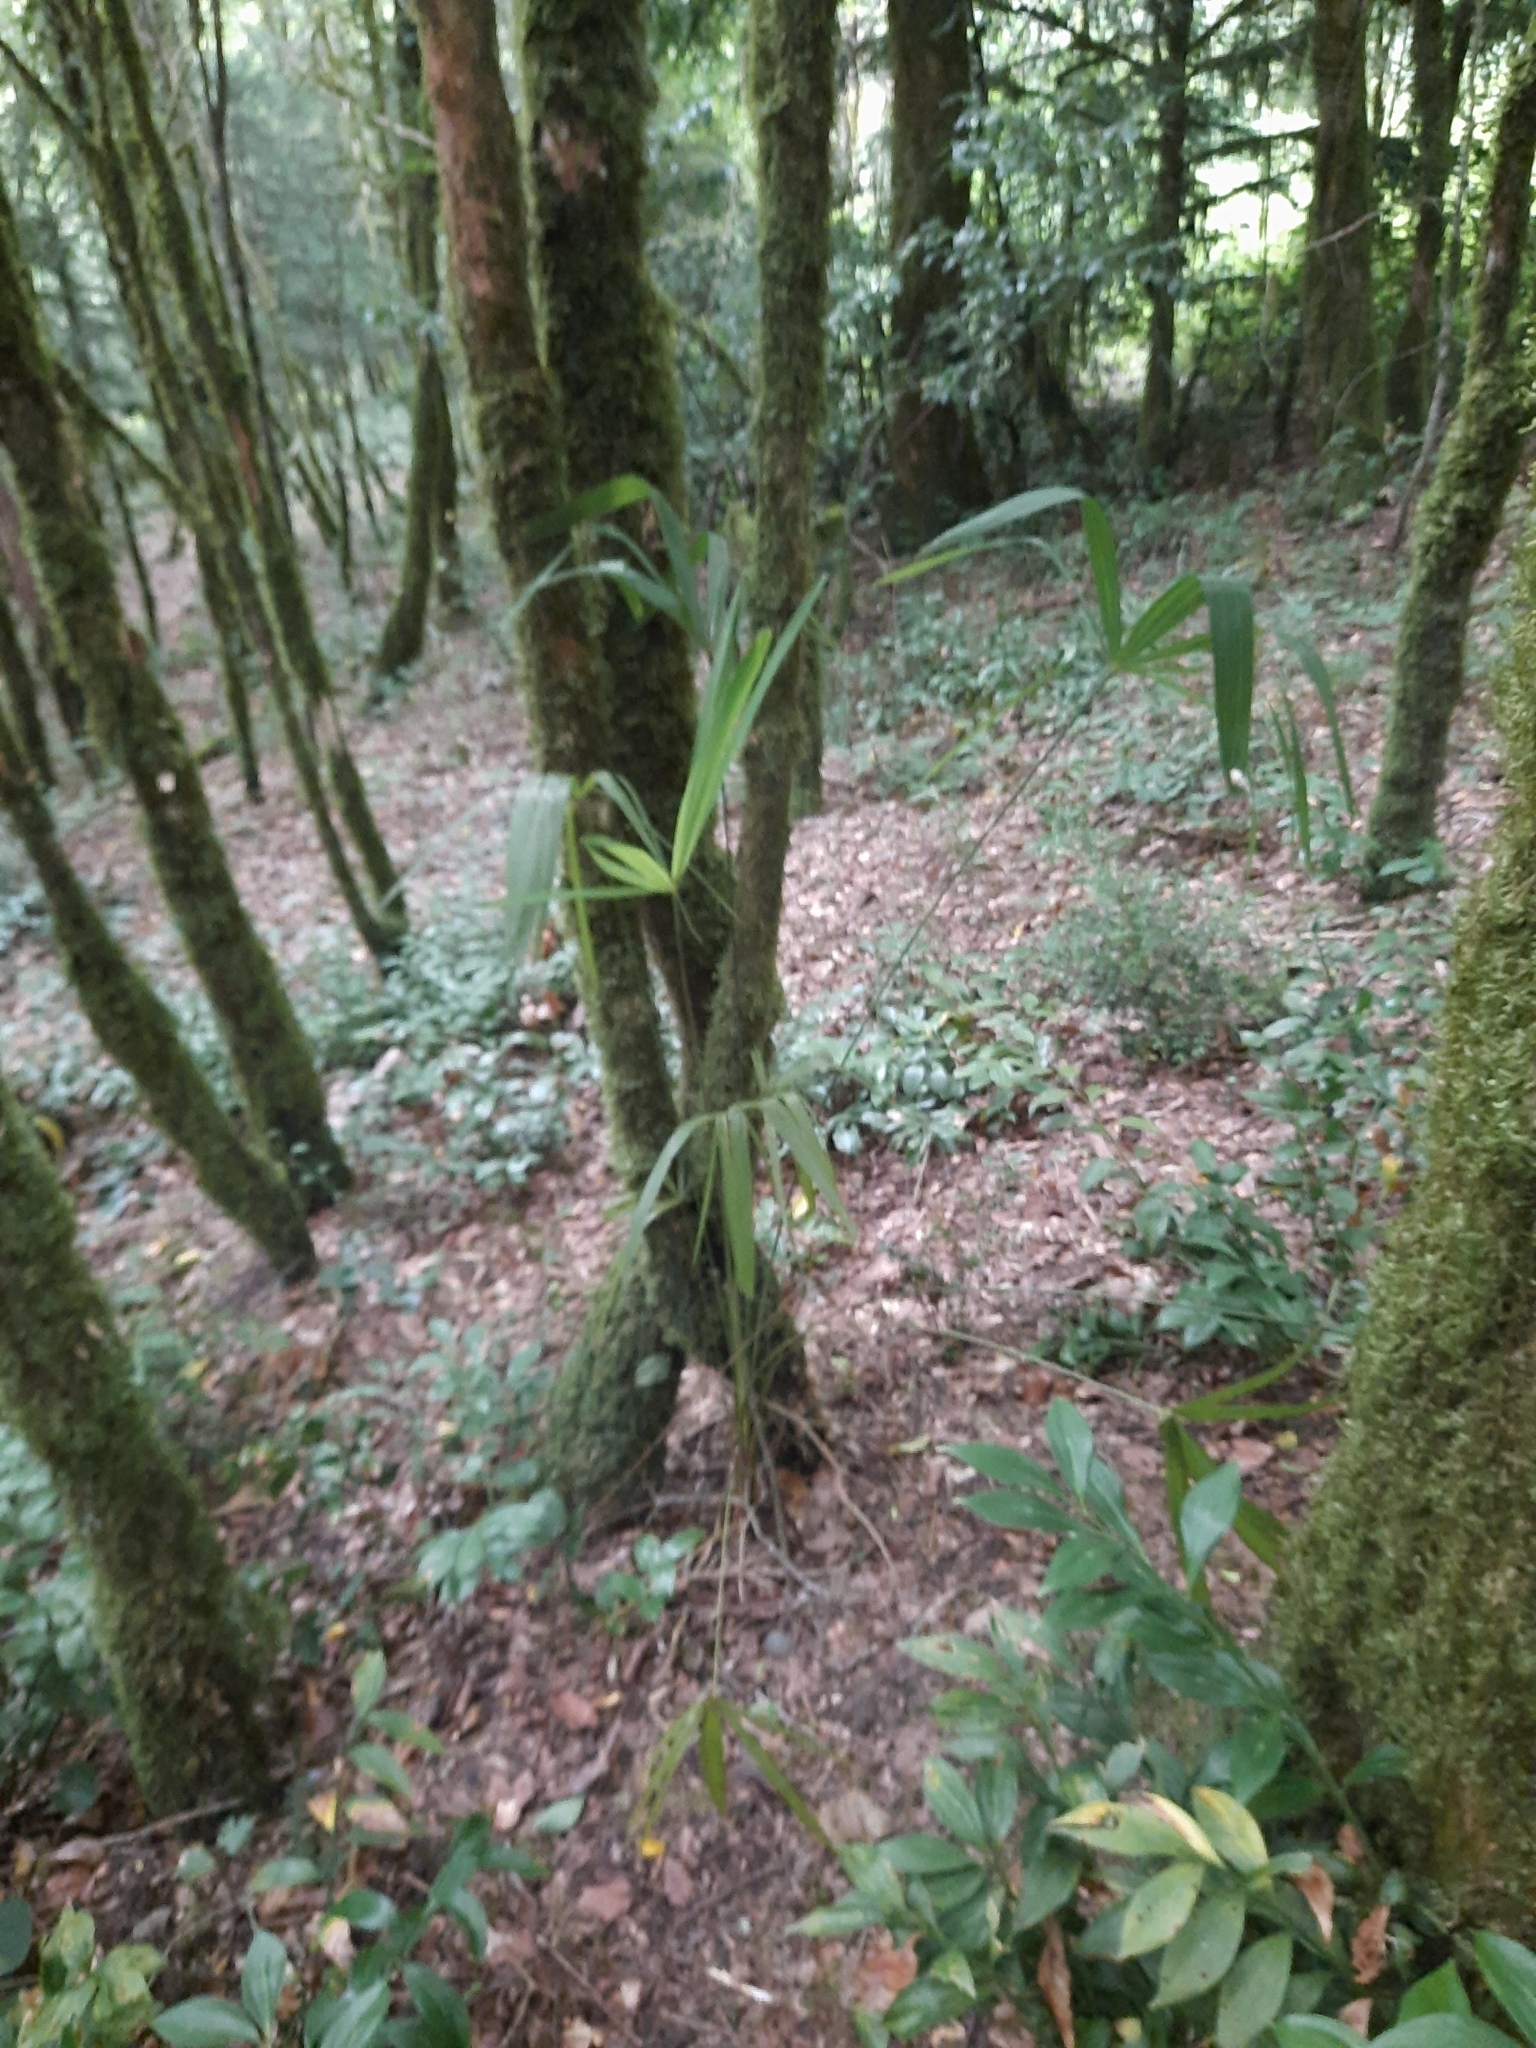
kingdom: Plantae
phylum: Tracheophyta
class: Liliopsida
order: Arecales
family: Arecaceae
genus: Trachycarpus
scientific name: Trachycarpus fortunei
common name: Chusan palm
